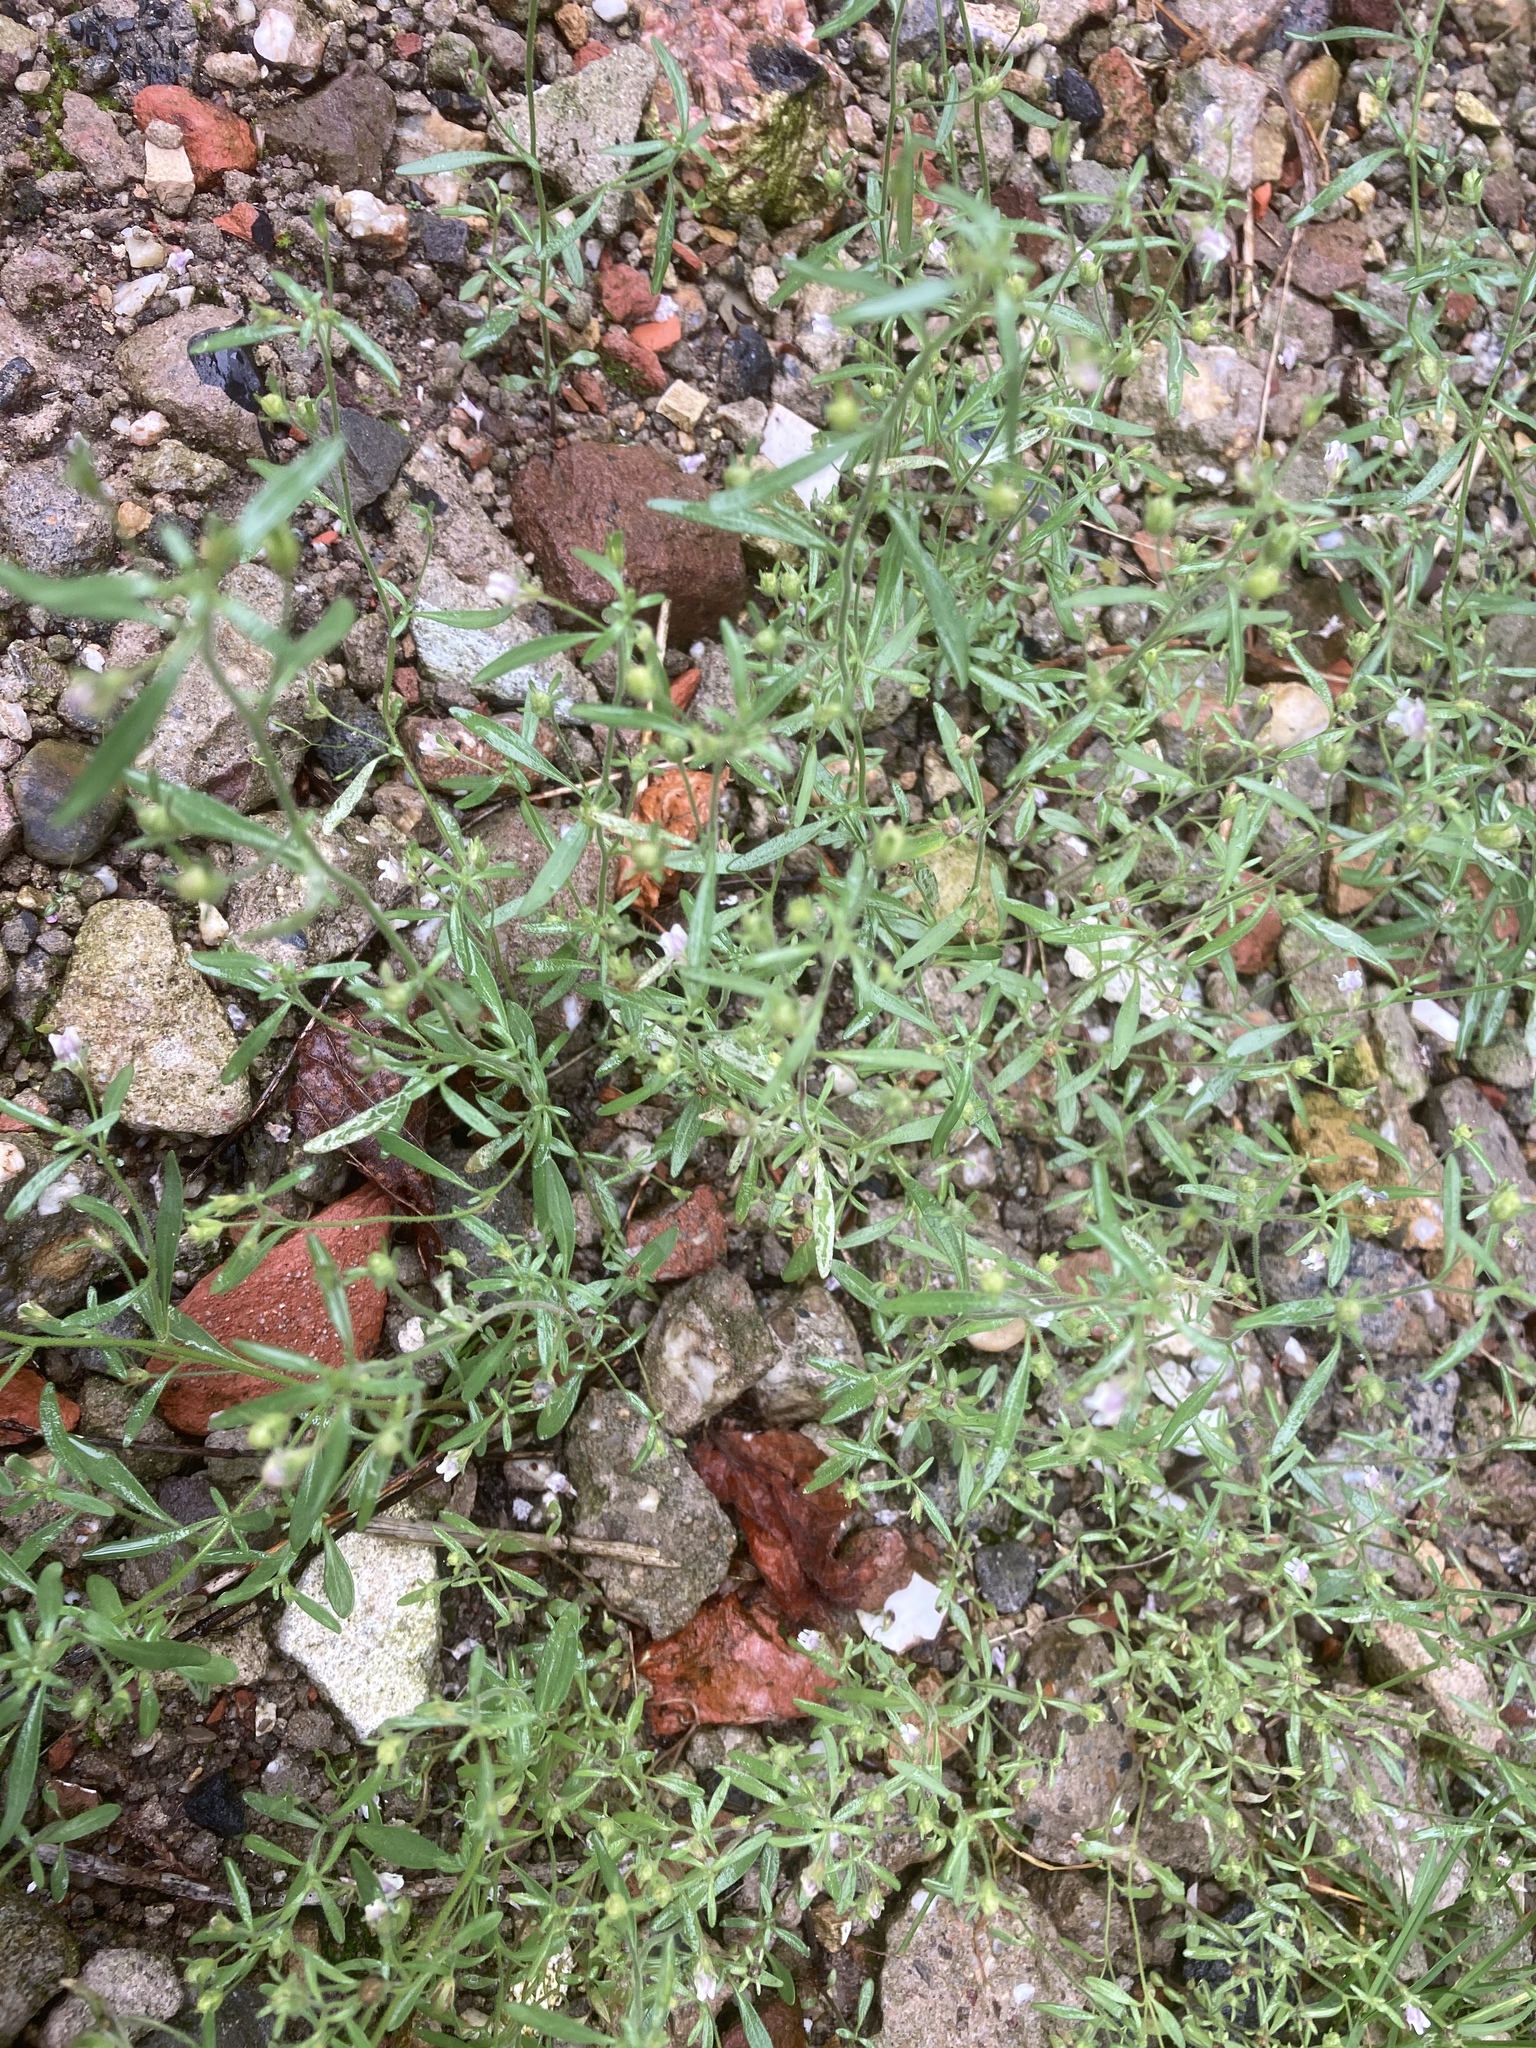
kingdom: Plantae
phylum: Tracheophyta
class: Magnoliopsida
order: Lamiales
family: Plantaginaceae
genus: Chaenorhinum
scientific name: Chaenorhinum minus
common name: Dwarf snapdragon
